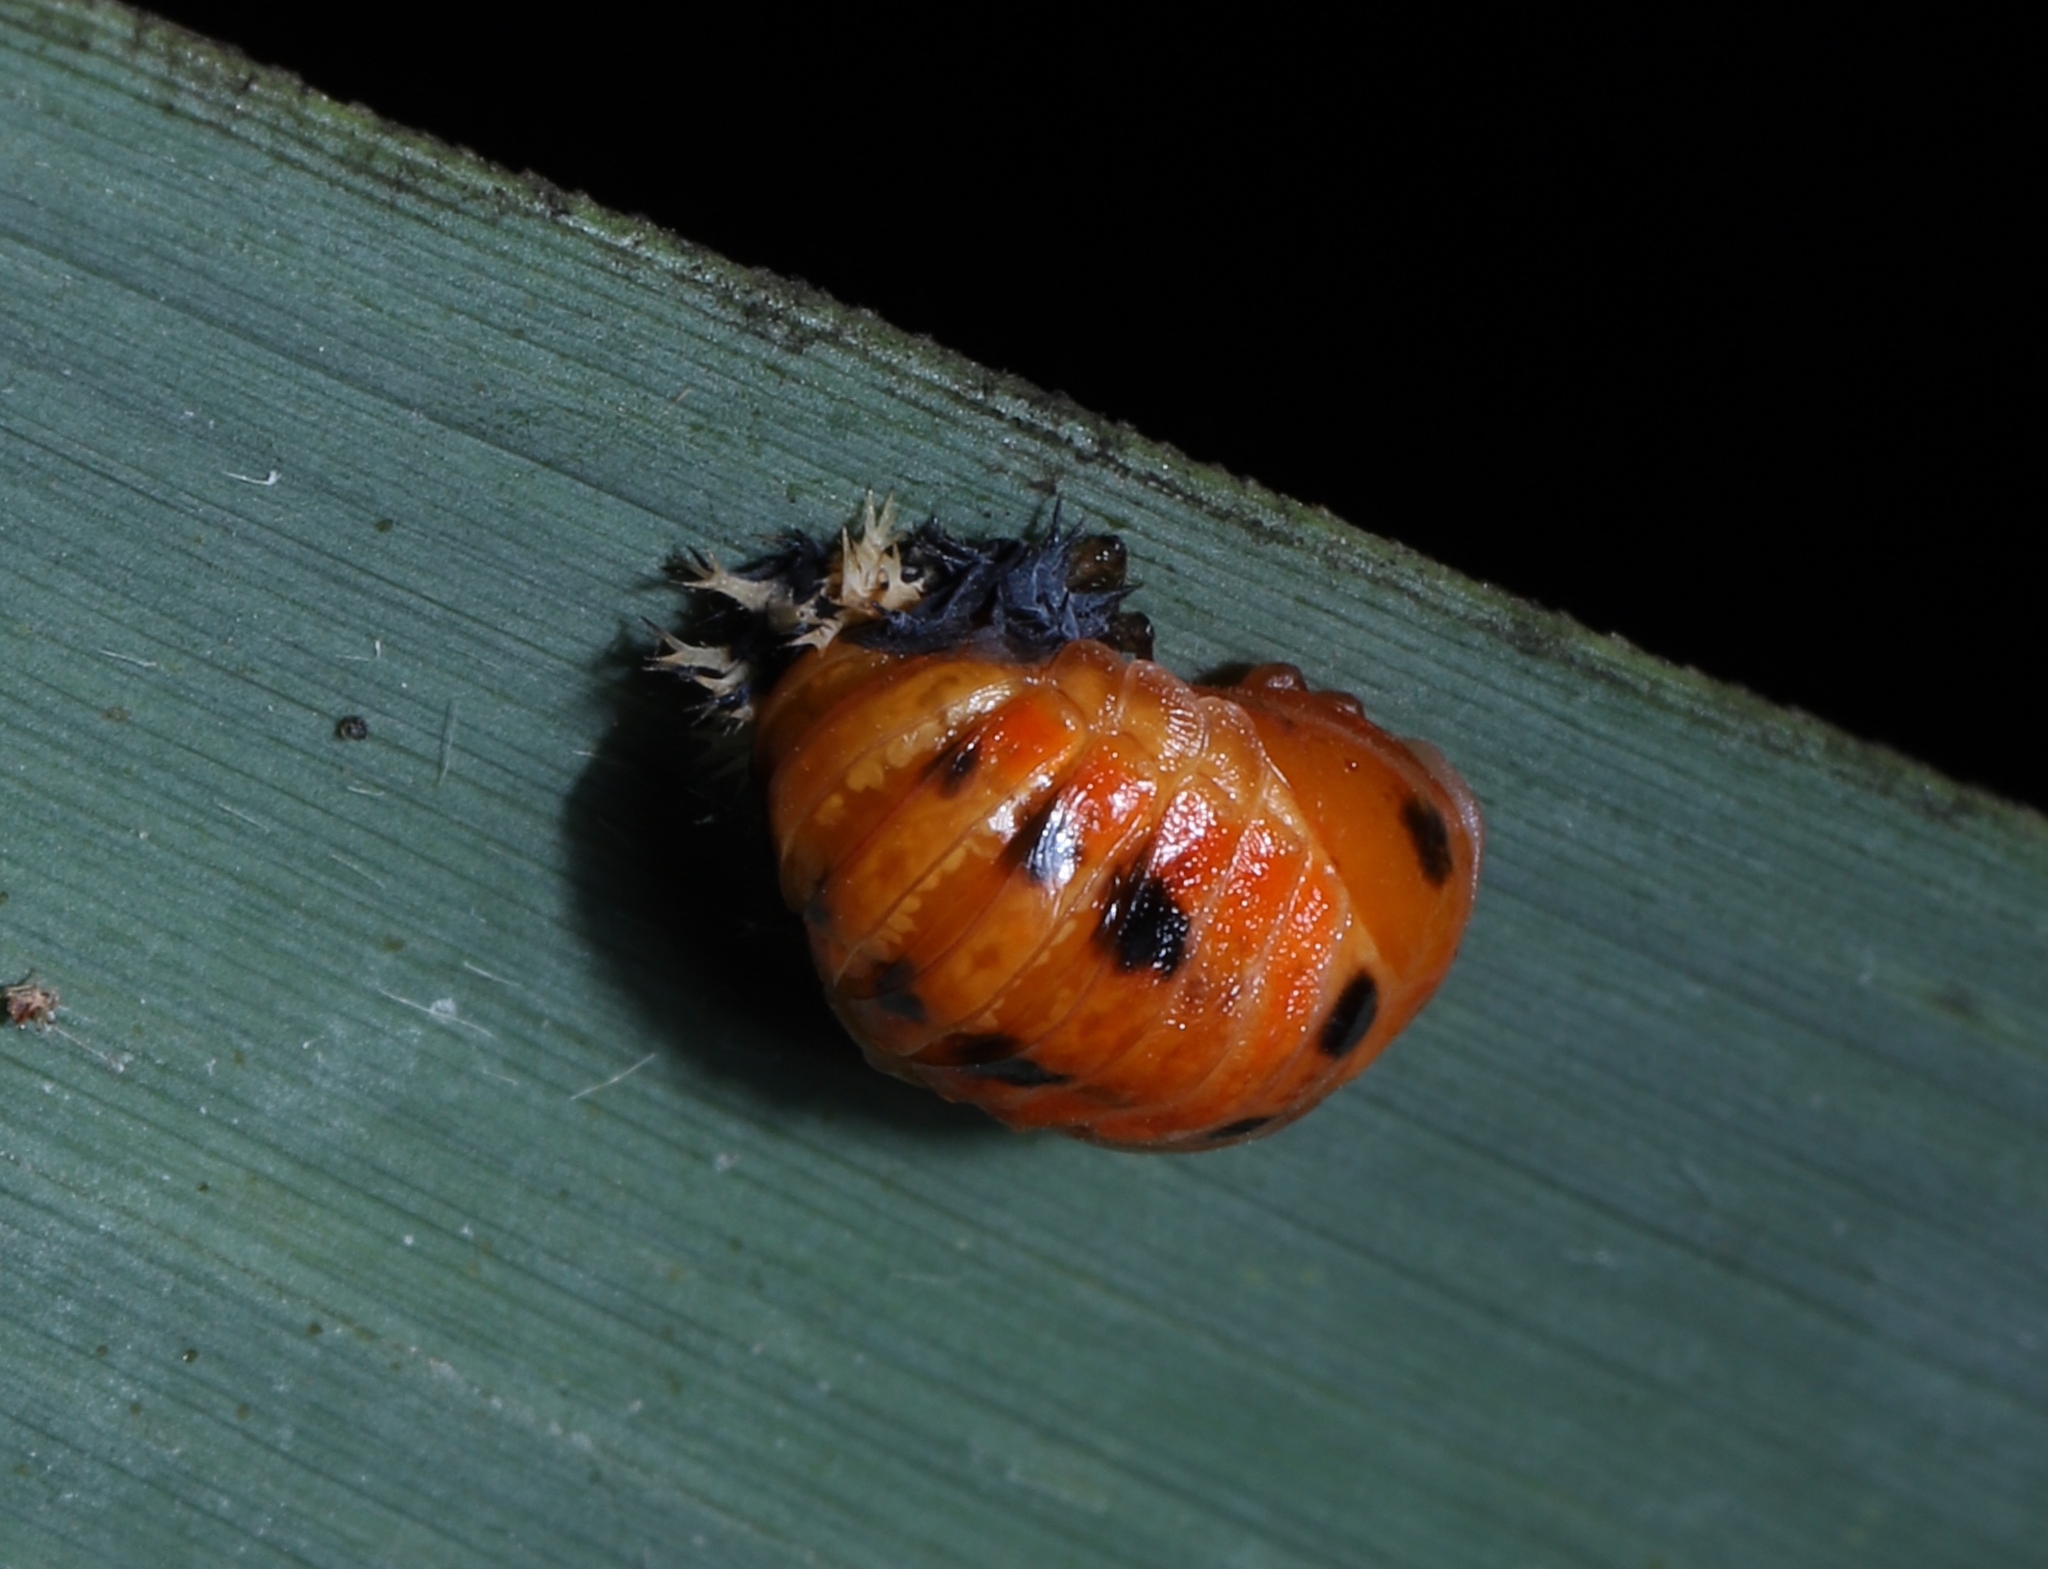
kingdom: Animalia
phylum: Arthropoda
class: Insecta
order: Coleoptera
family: Coccinellidae
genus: Harmonia
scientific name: Harmonia axyridis
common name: Harlequin ladybird
